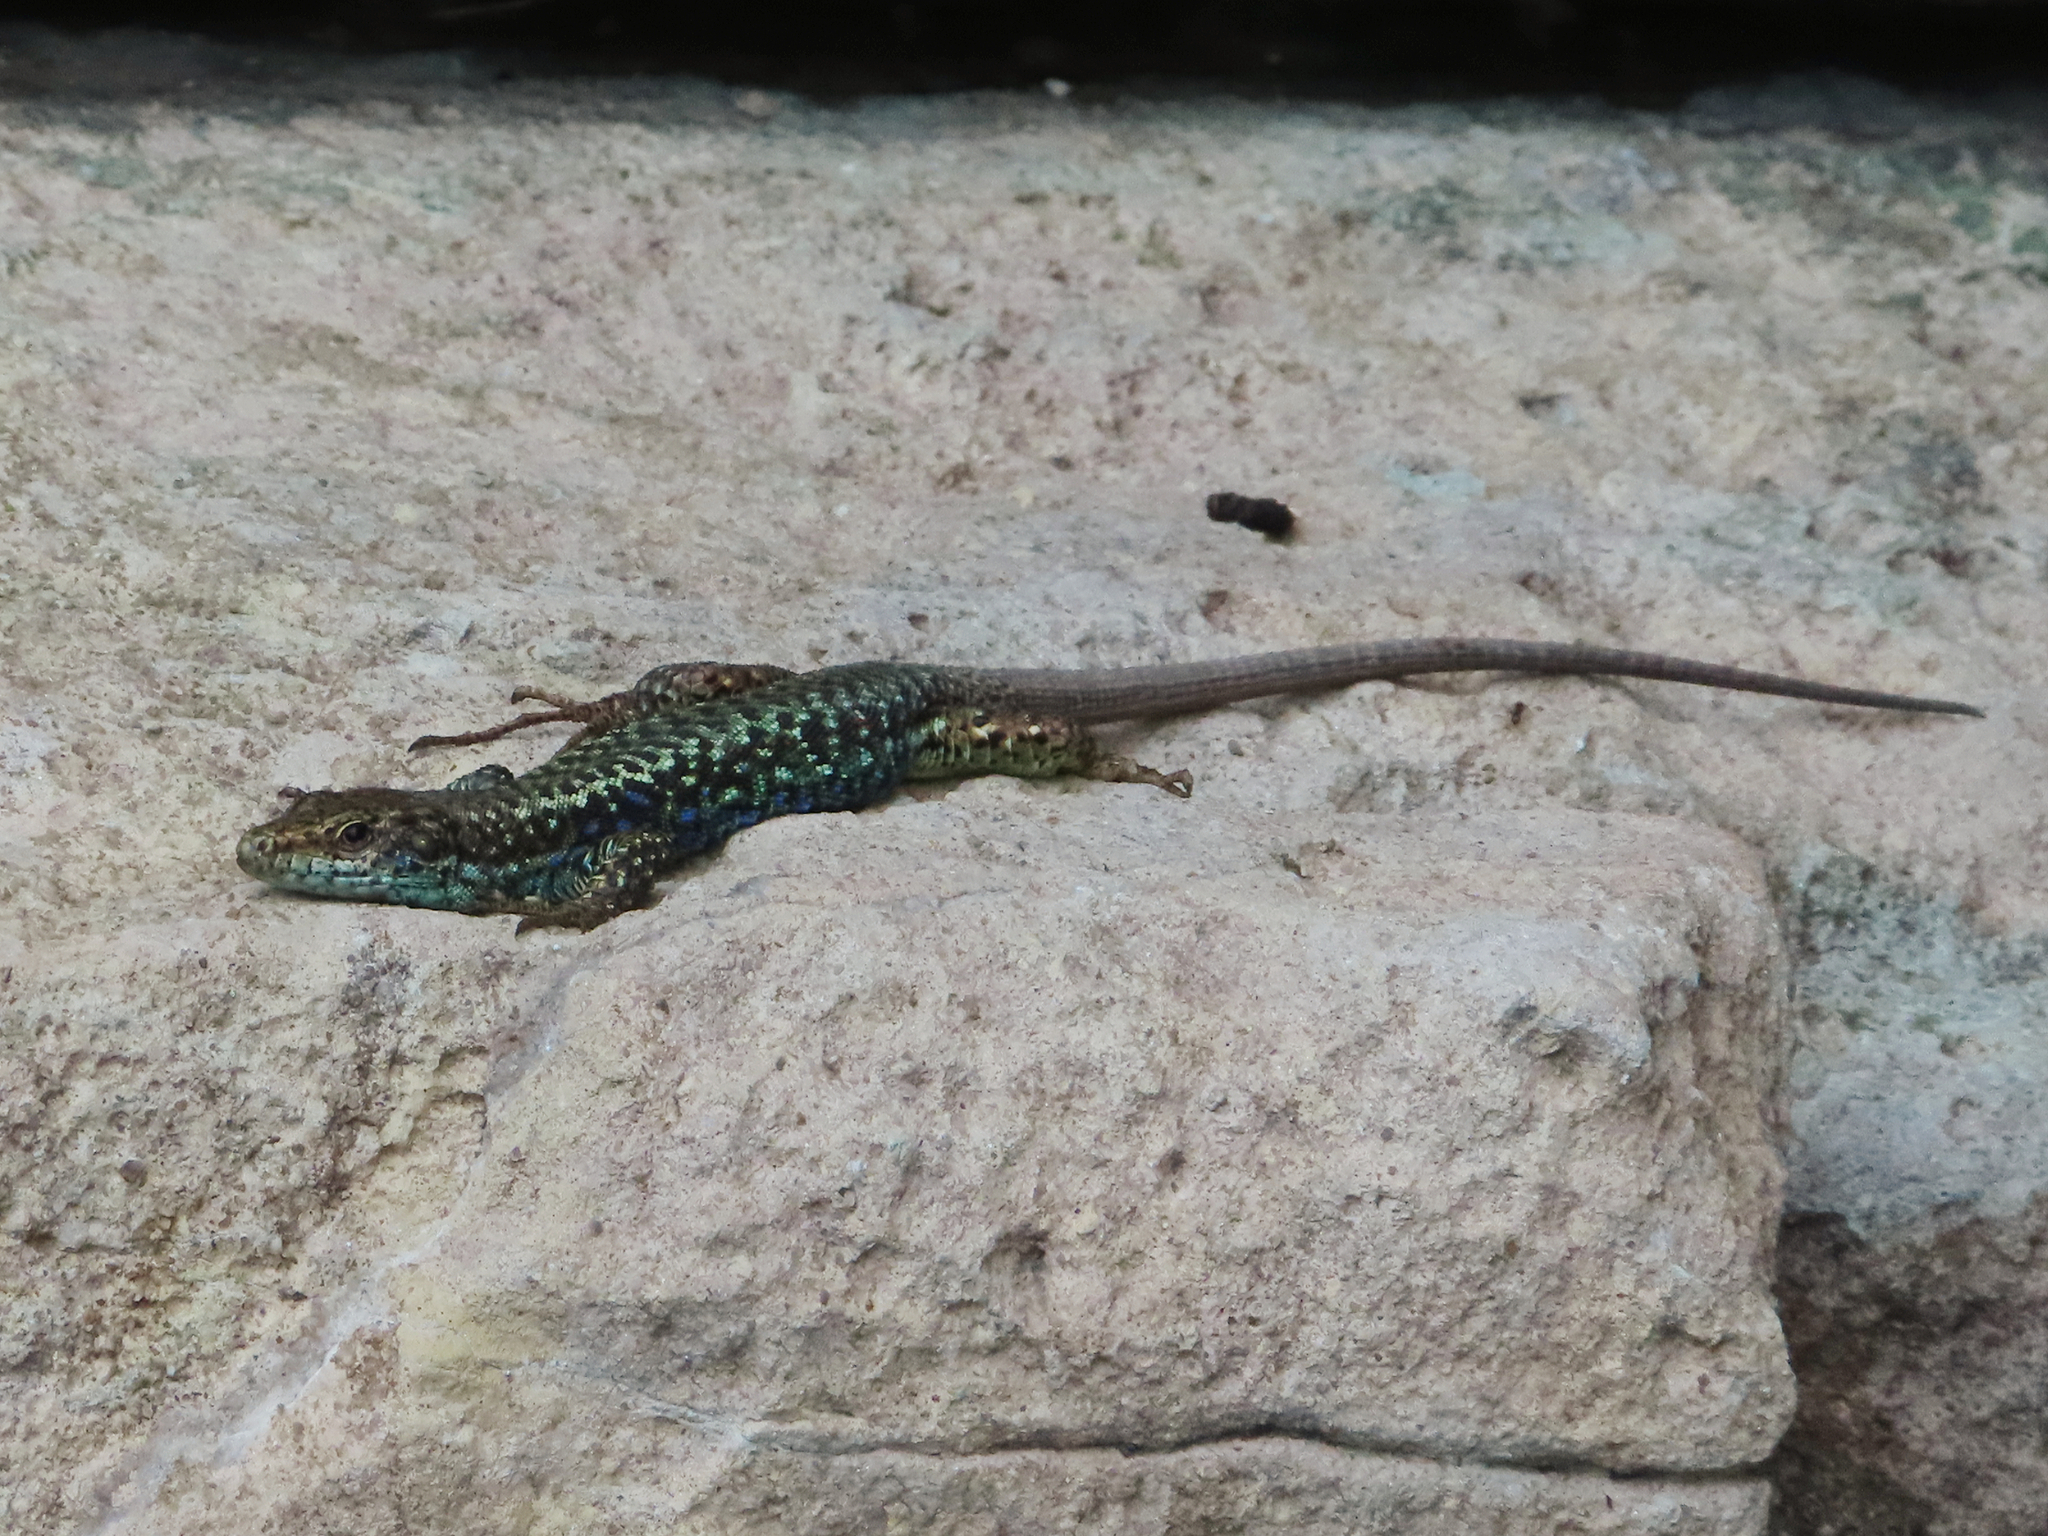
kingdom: Animalia
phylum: Chordata
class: Squamata
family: Lacertidae
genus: Darevskia
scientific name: Darevskia rudis
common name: Spiny-tailed lizard
